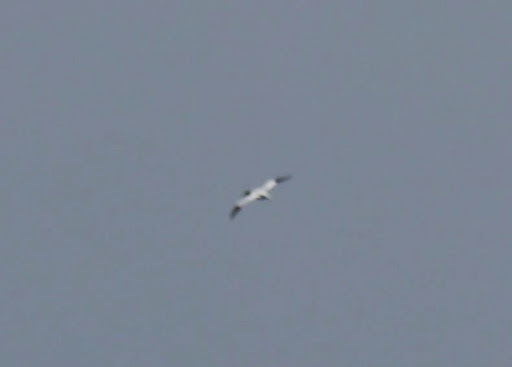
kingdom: Animalia
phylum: Chordata
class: Aves
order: Suliformes
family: Sulidae
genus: Morus
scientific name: Morus bassanus
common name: Northern gannet
